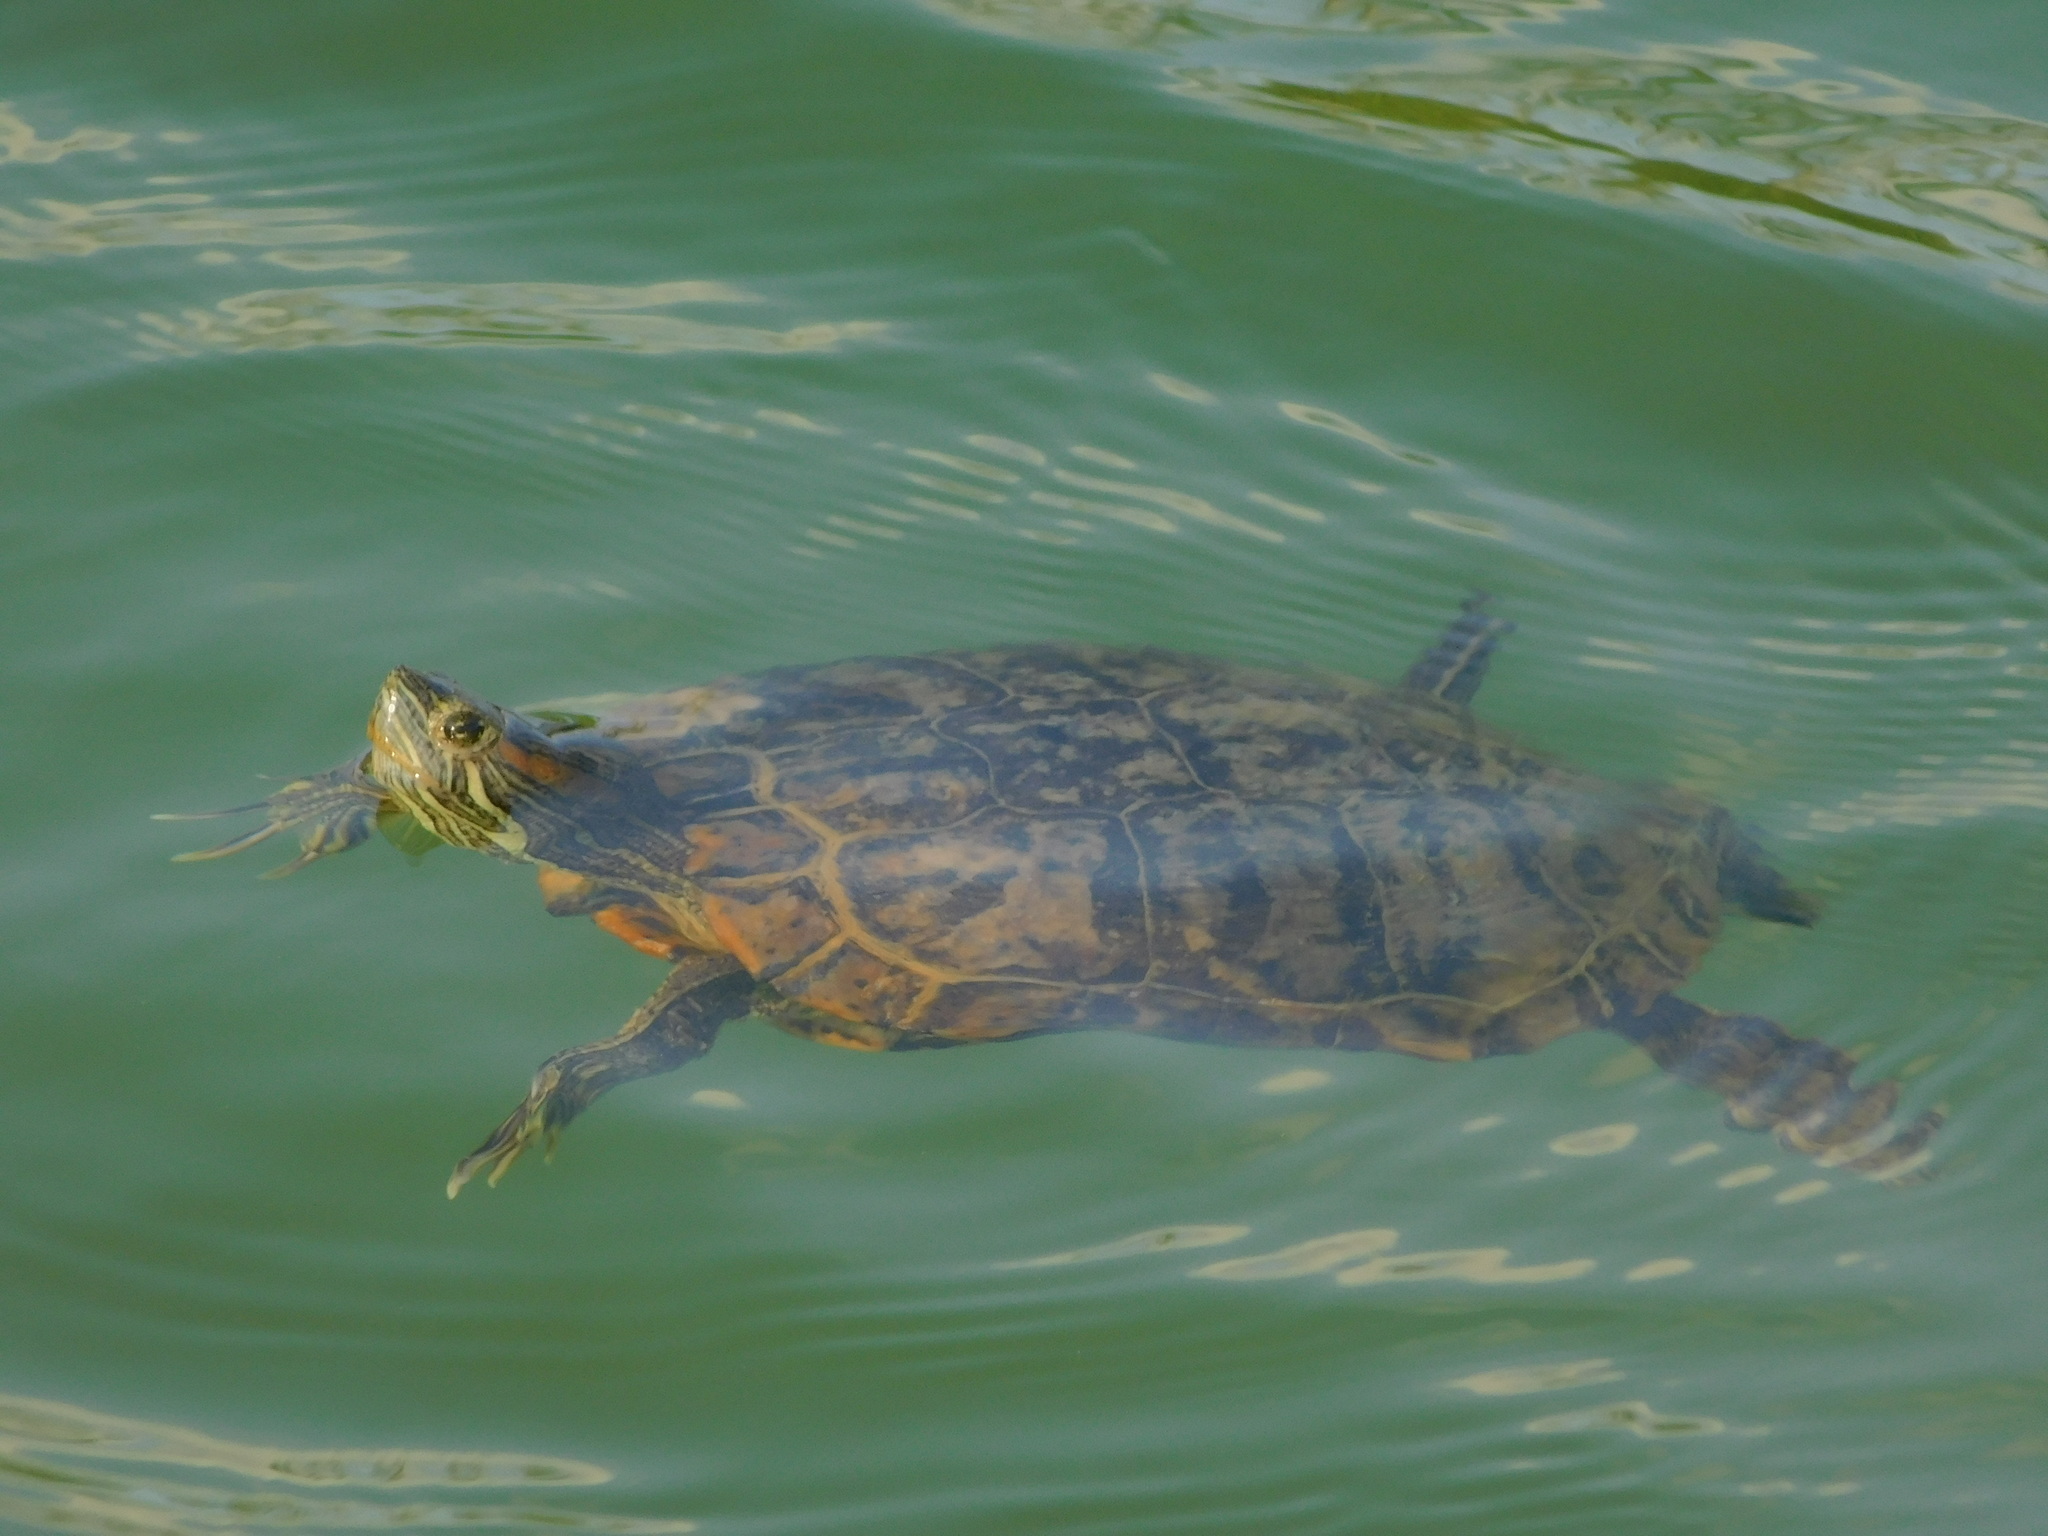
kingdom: Animalia
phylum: Chordata
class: Testudines
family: Emydidae
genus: Trachemys
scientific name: Trachemys scripta
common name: Slider
